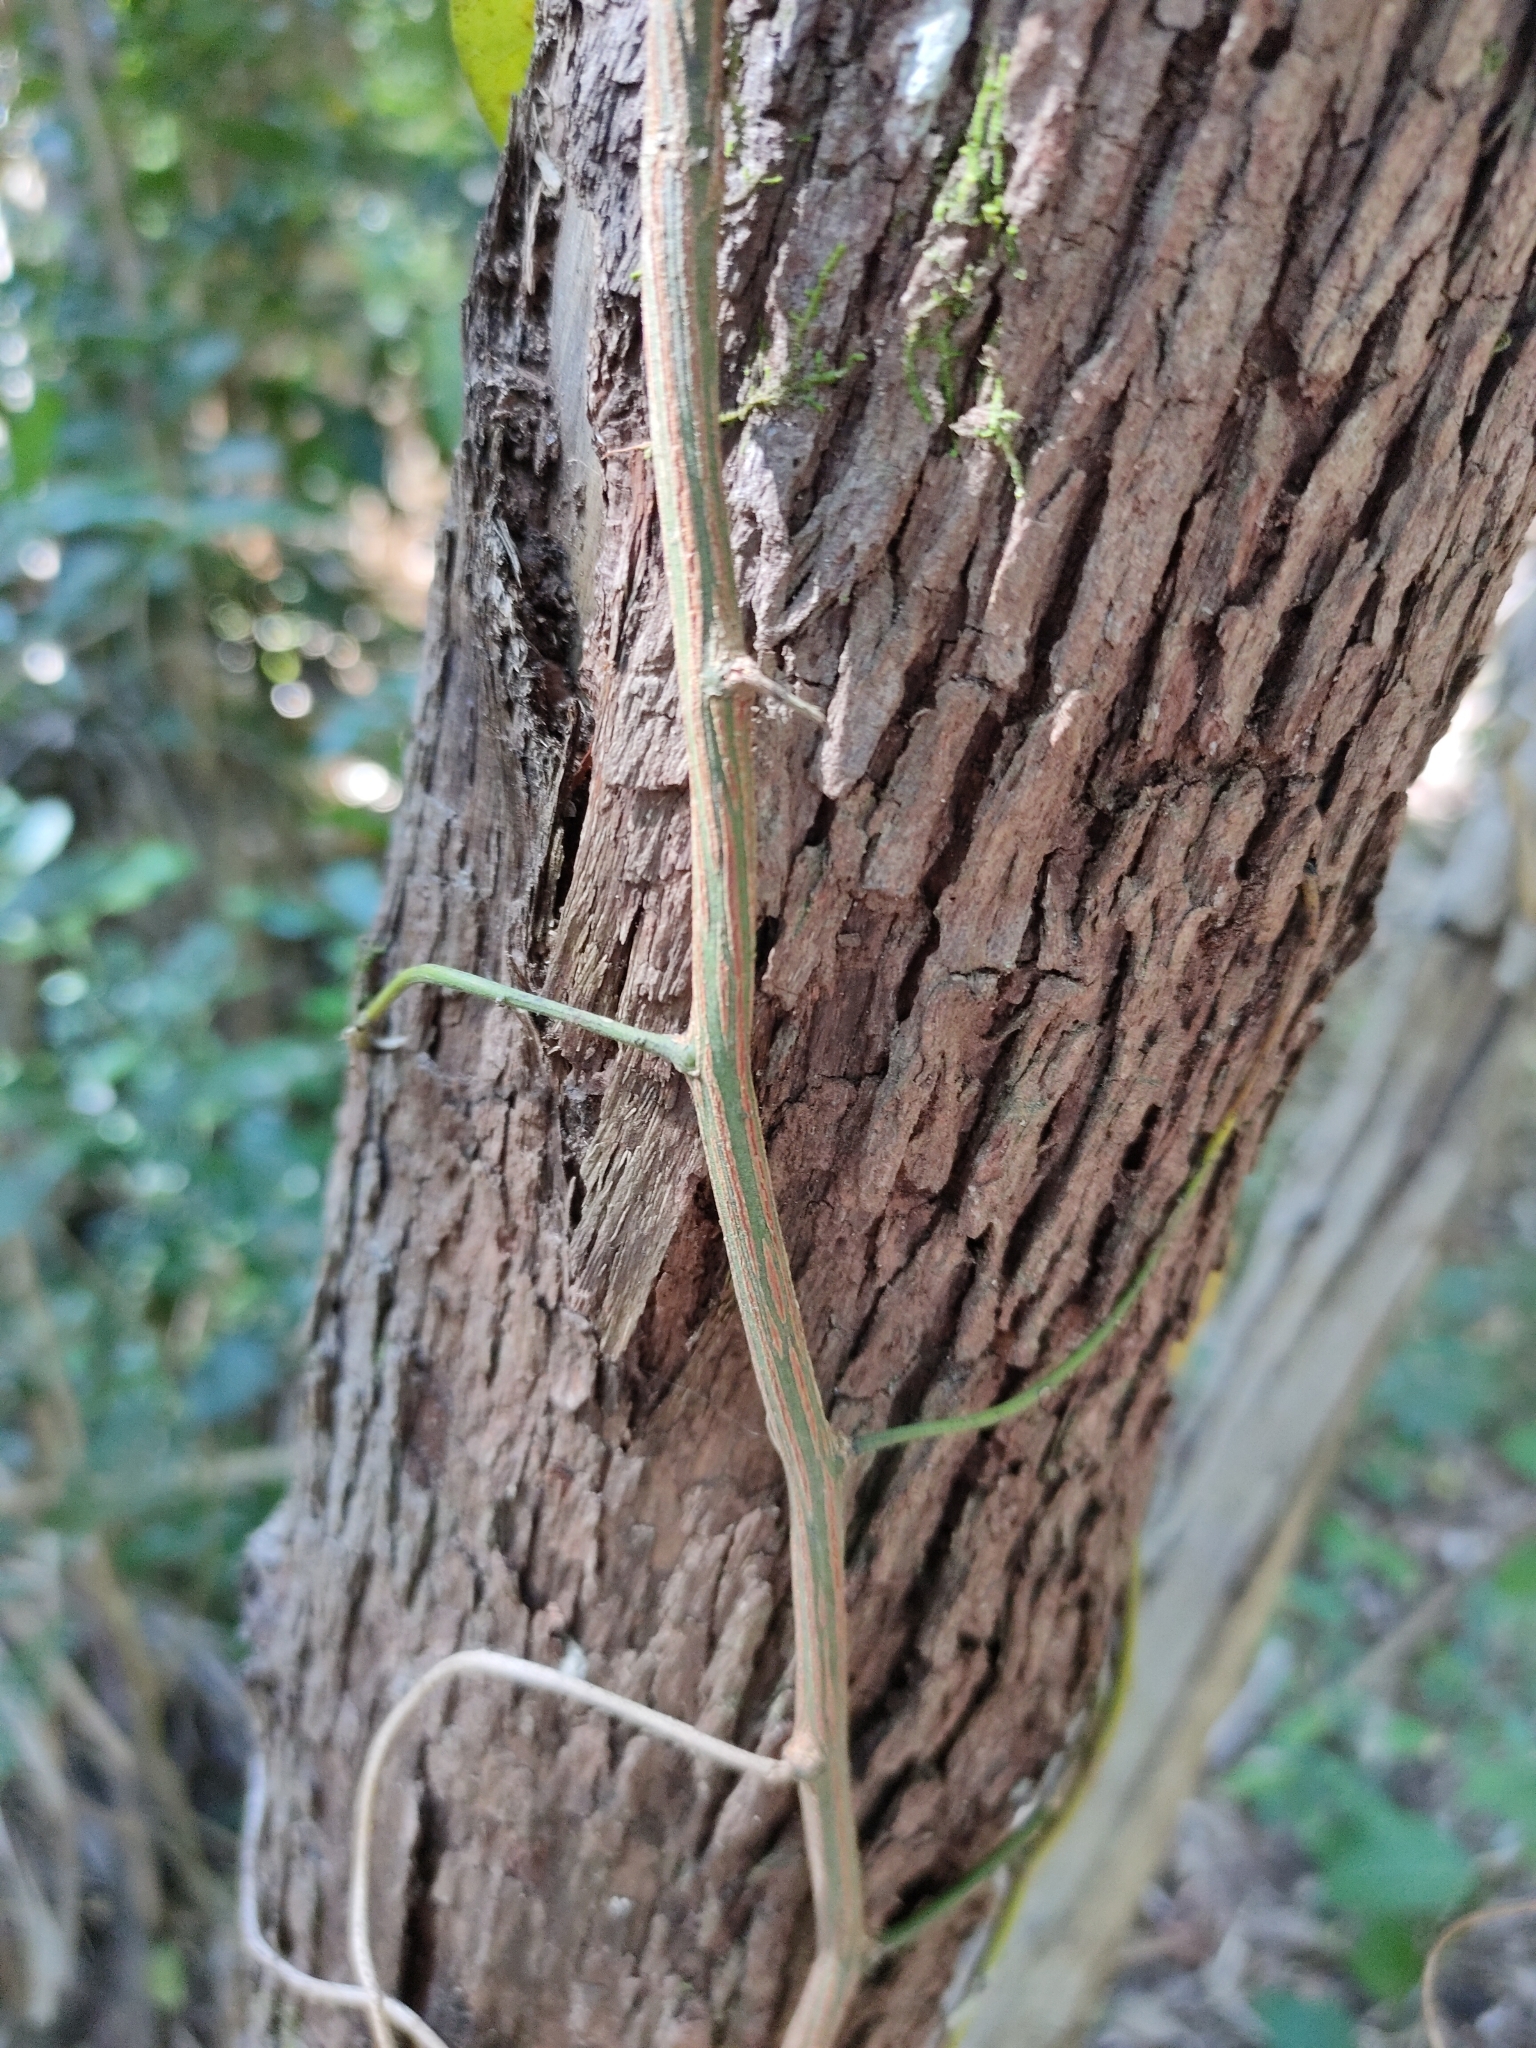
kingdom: Plantae
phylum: Tracheophyta
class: Magnoliopsida
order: Rosales
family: Rhamnaceae
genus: Ventilago
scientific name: Ventilago pubiflora
